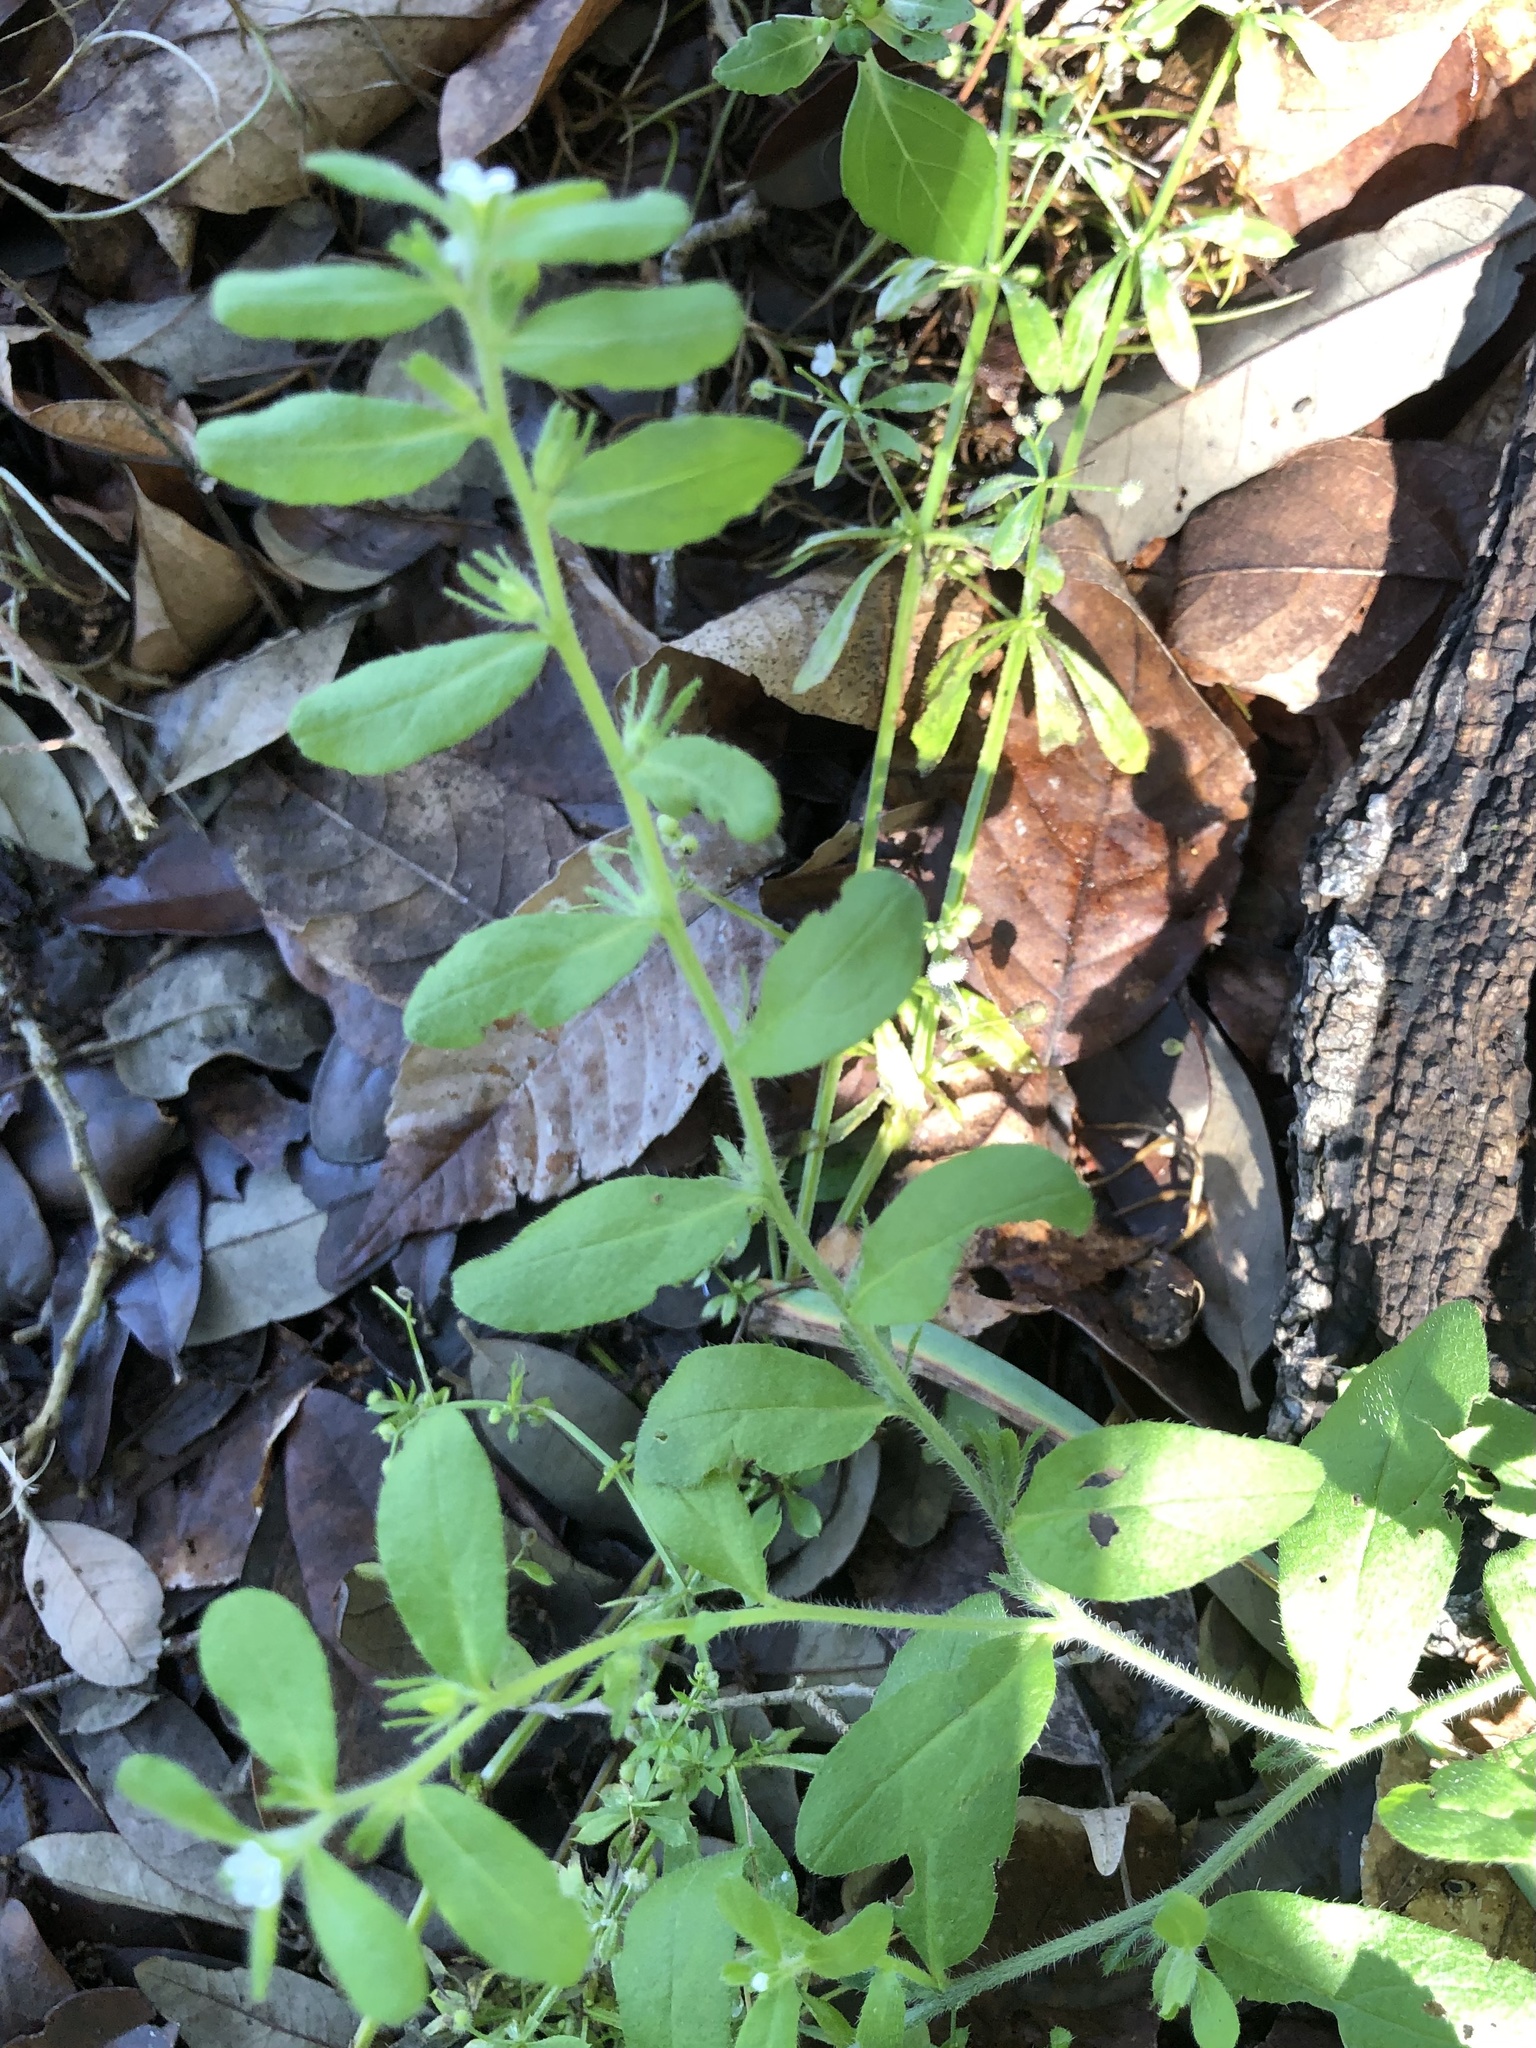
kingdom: Plantae
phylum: Tracheophyta
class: Magnoliopsida
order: Boraginales
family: Boraginaceae
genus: Lithospermum
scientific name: Lithospermum matamorense
